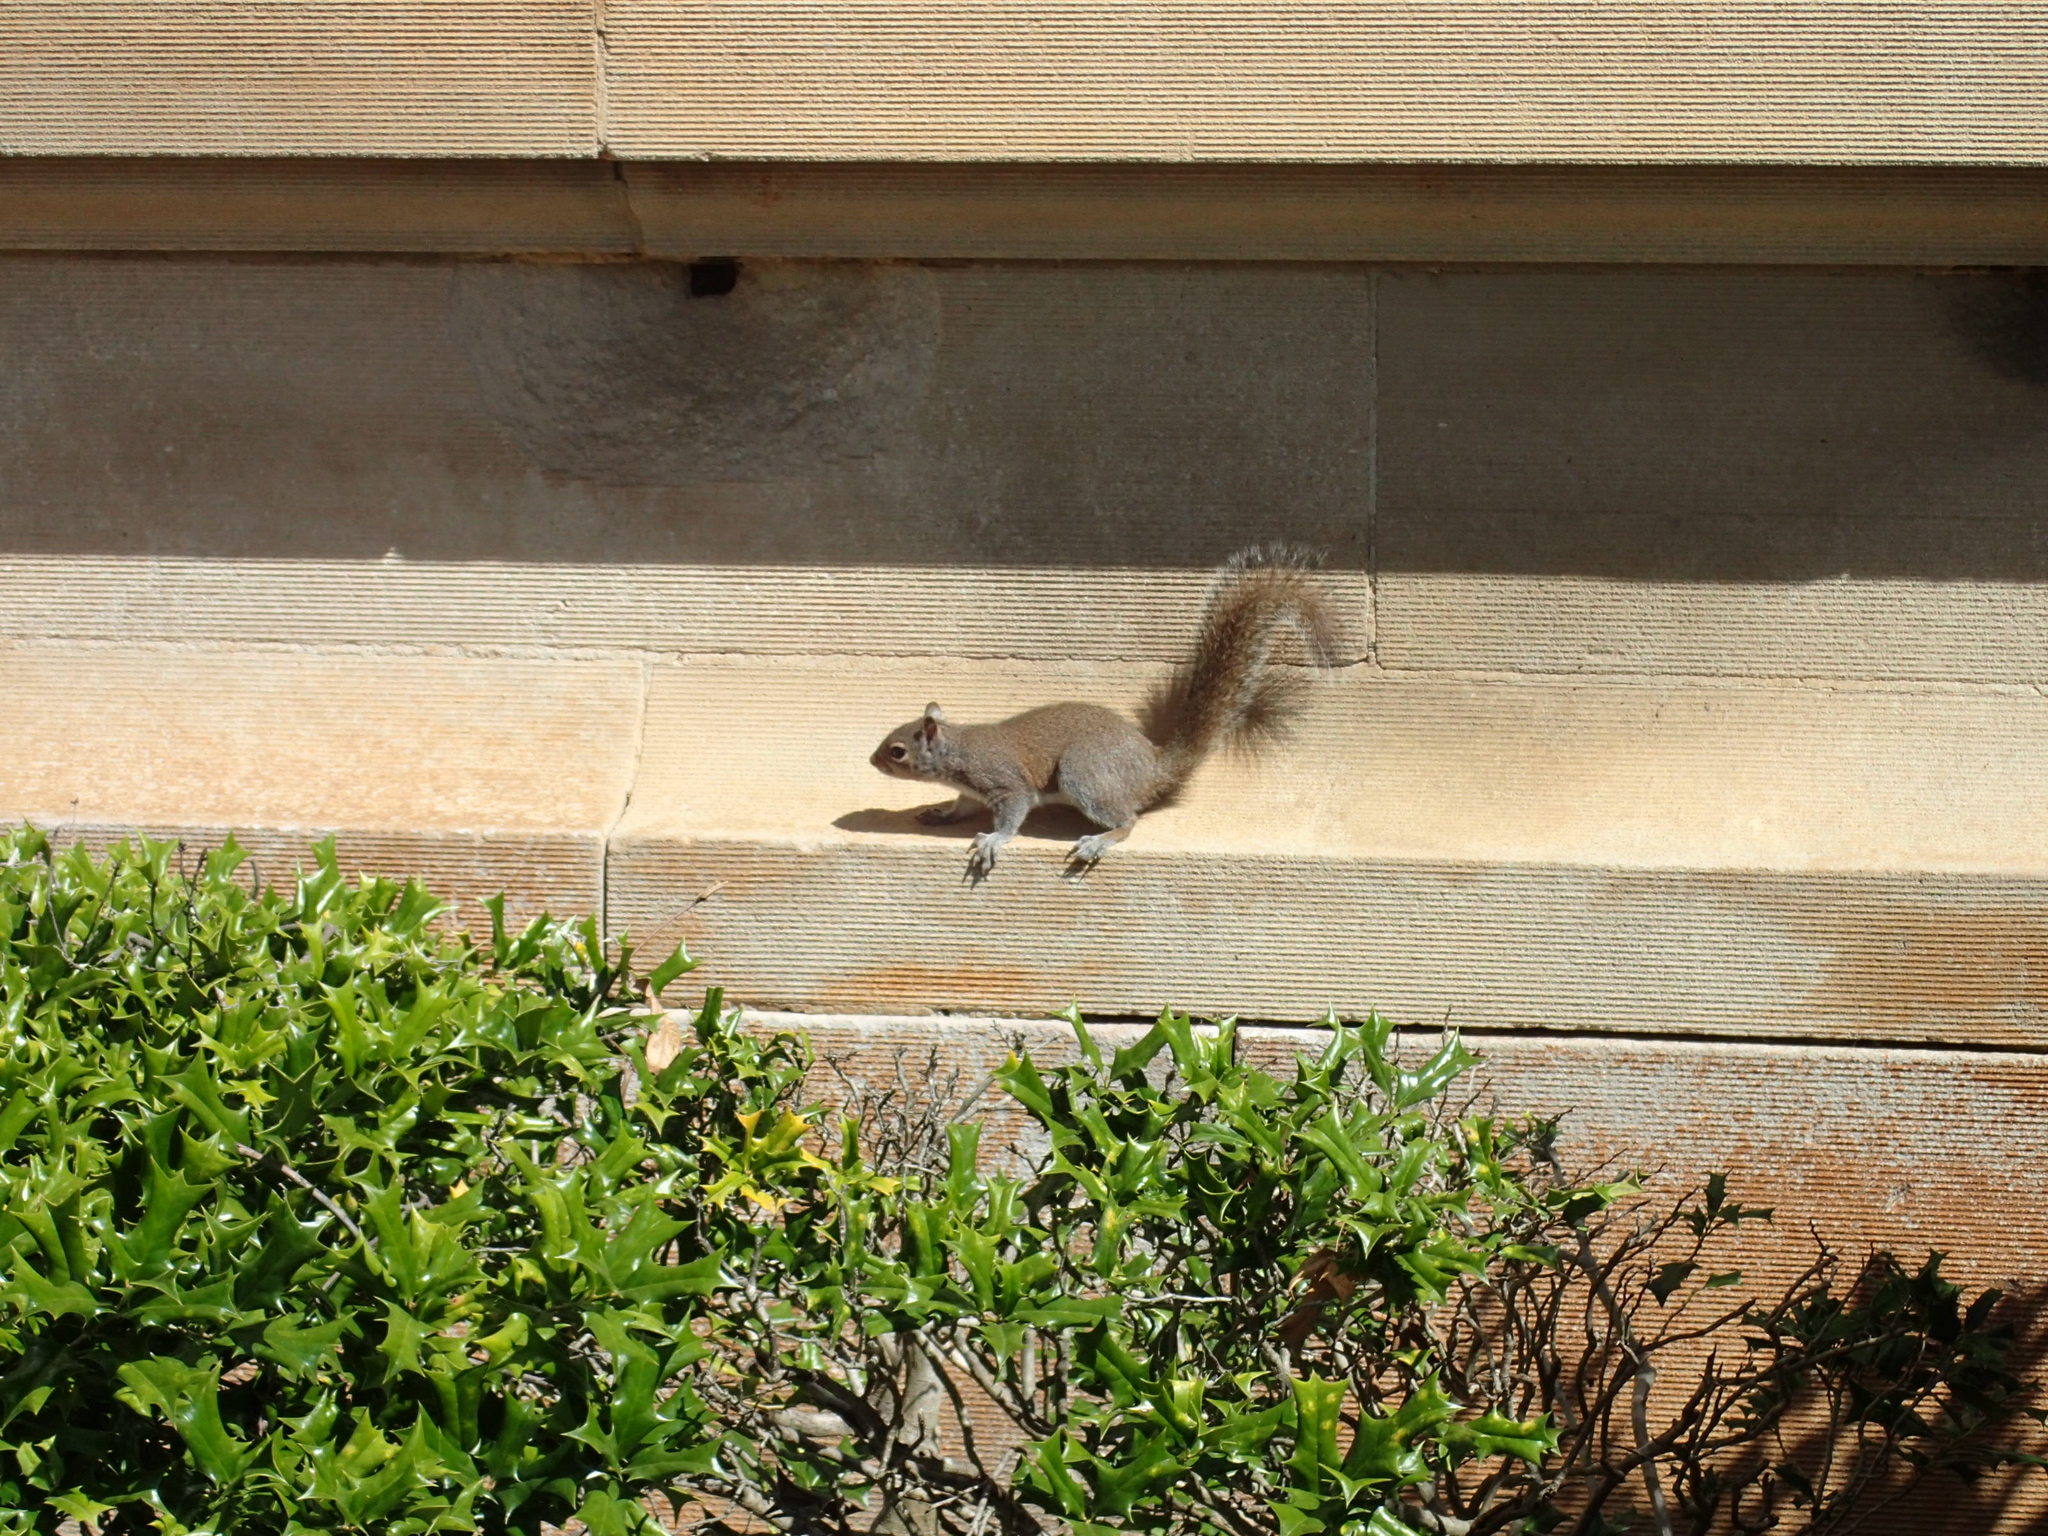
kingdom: Animalia
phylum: Chordata
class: Mammalia
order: Rodentia
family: Sciuridae
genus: Sciurus
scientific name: Sciurus carolinensis
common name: Eastern gray squirrel
